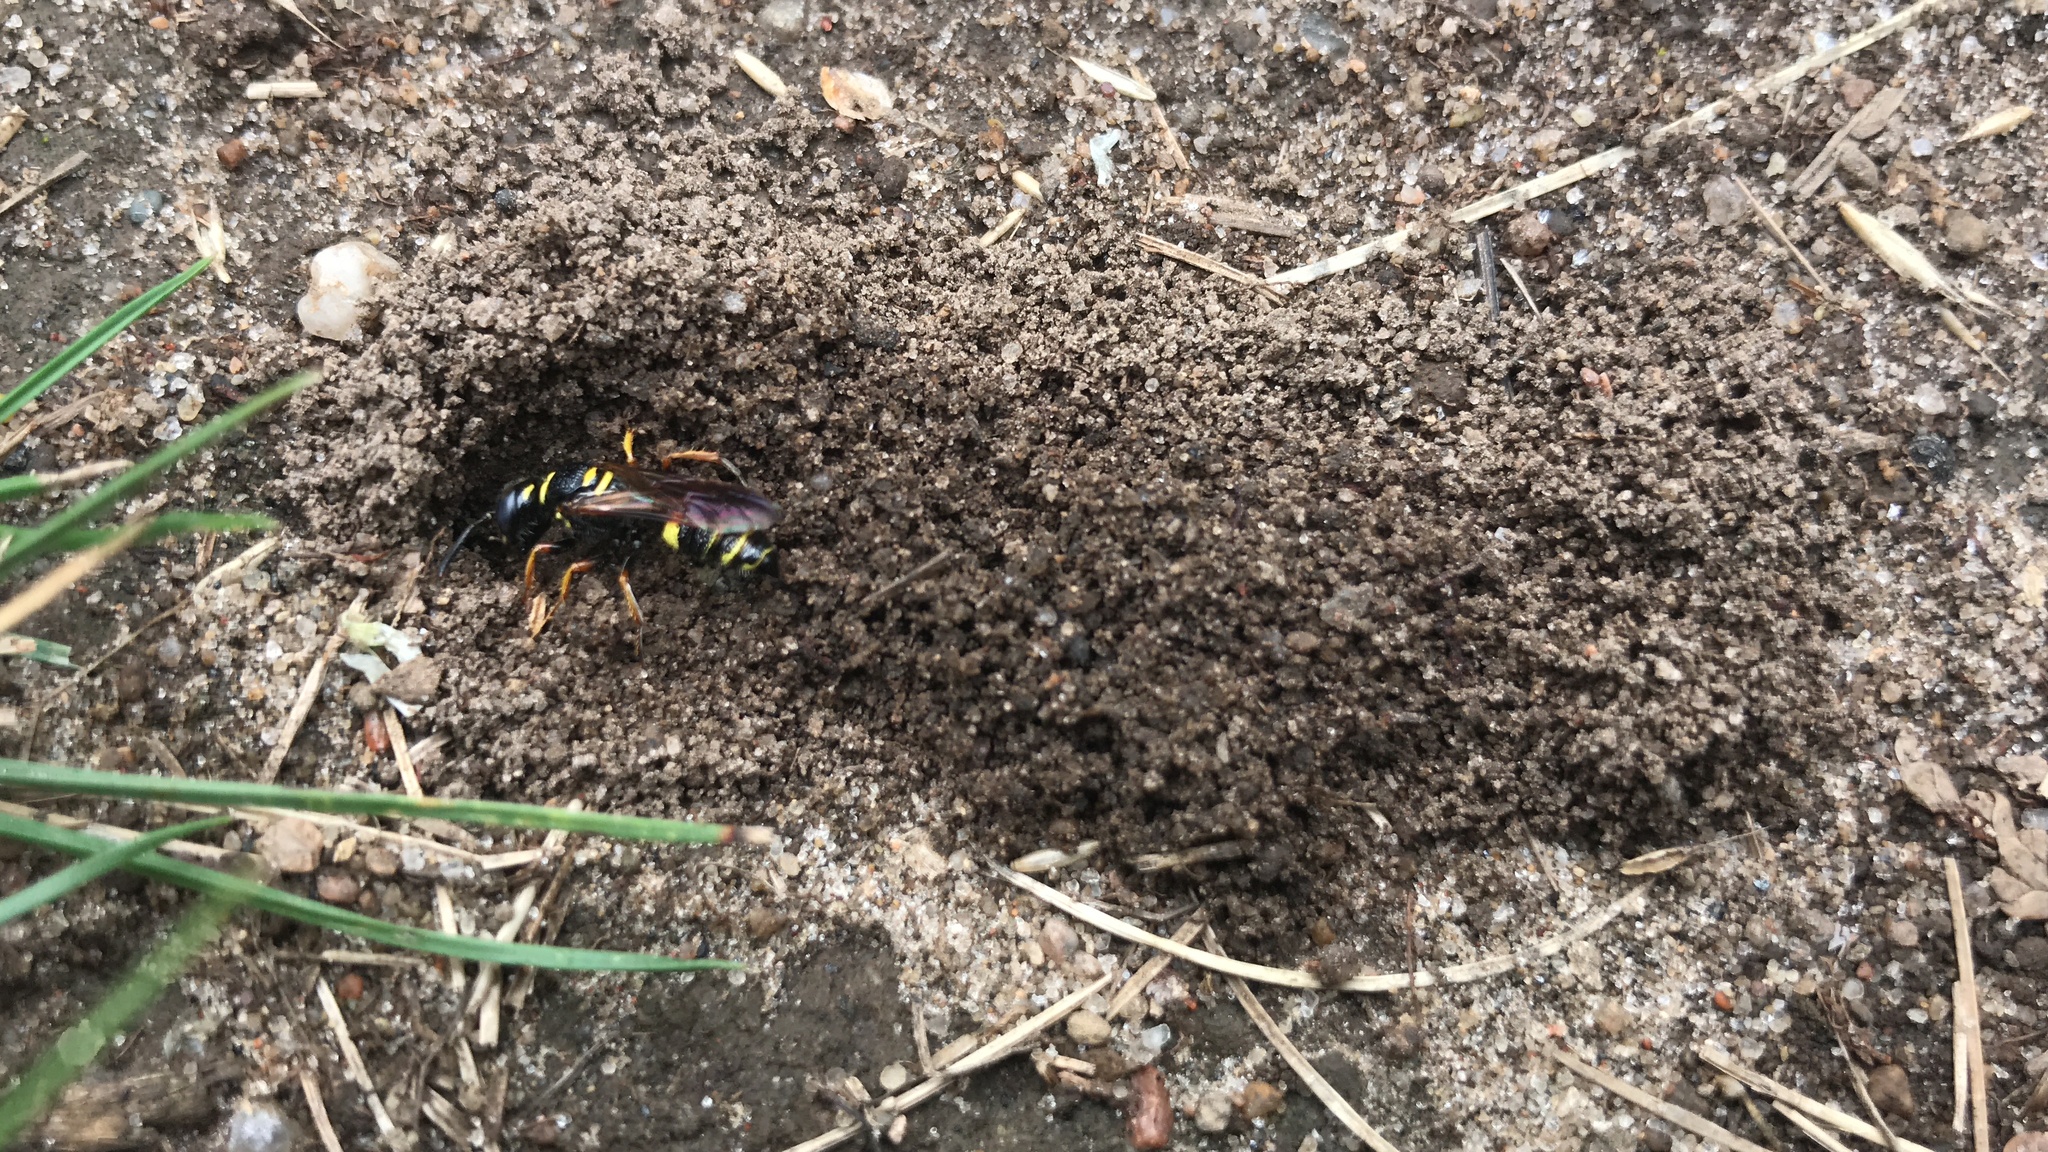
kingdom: Animalia
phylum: Arthropoda
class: Insecta
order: Hymenoptera
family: Crabronidae
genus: Philanthus
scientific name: Philanthus gibbosus
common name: Humped beewolf
